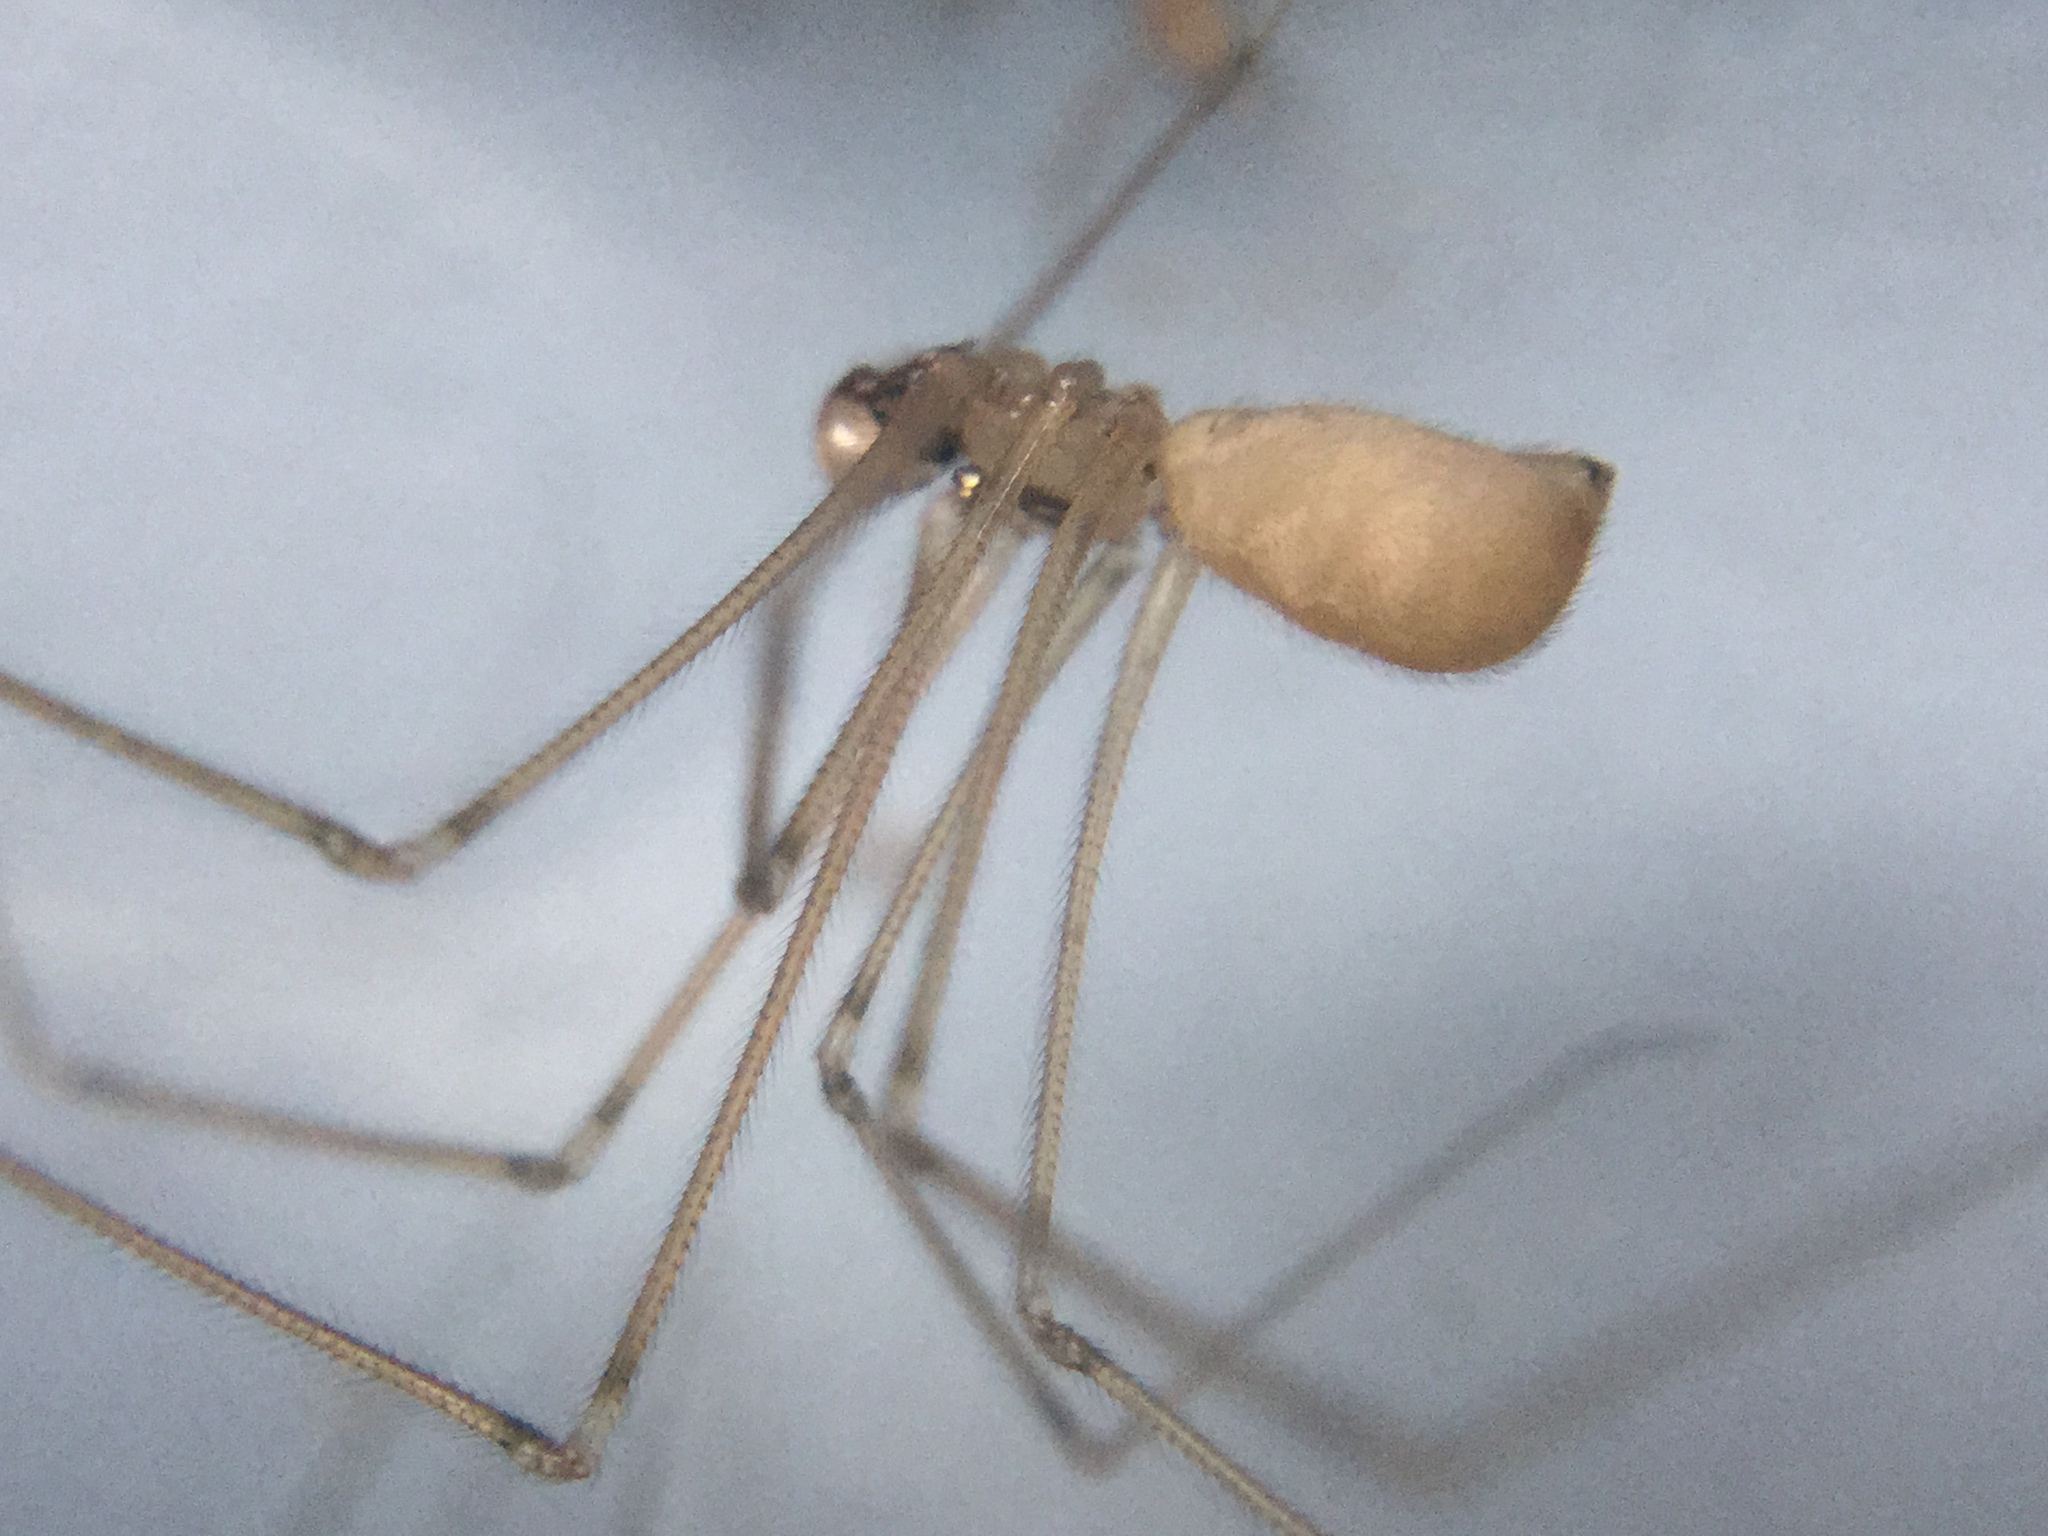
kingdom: Animalia
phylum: Arthropoda
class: Arachnida
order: Araneae
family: Pholcidae
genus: Pholcus
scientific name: Pholcus phalangioides
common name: Longbodied cellar spider
